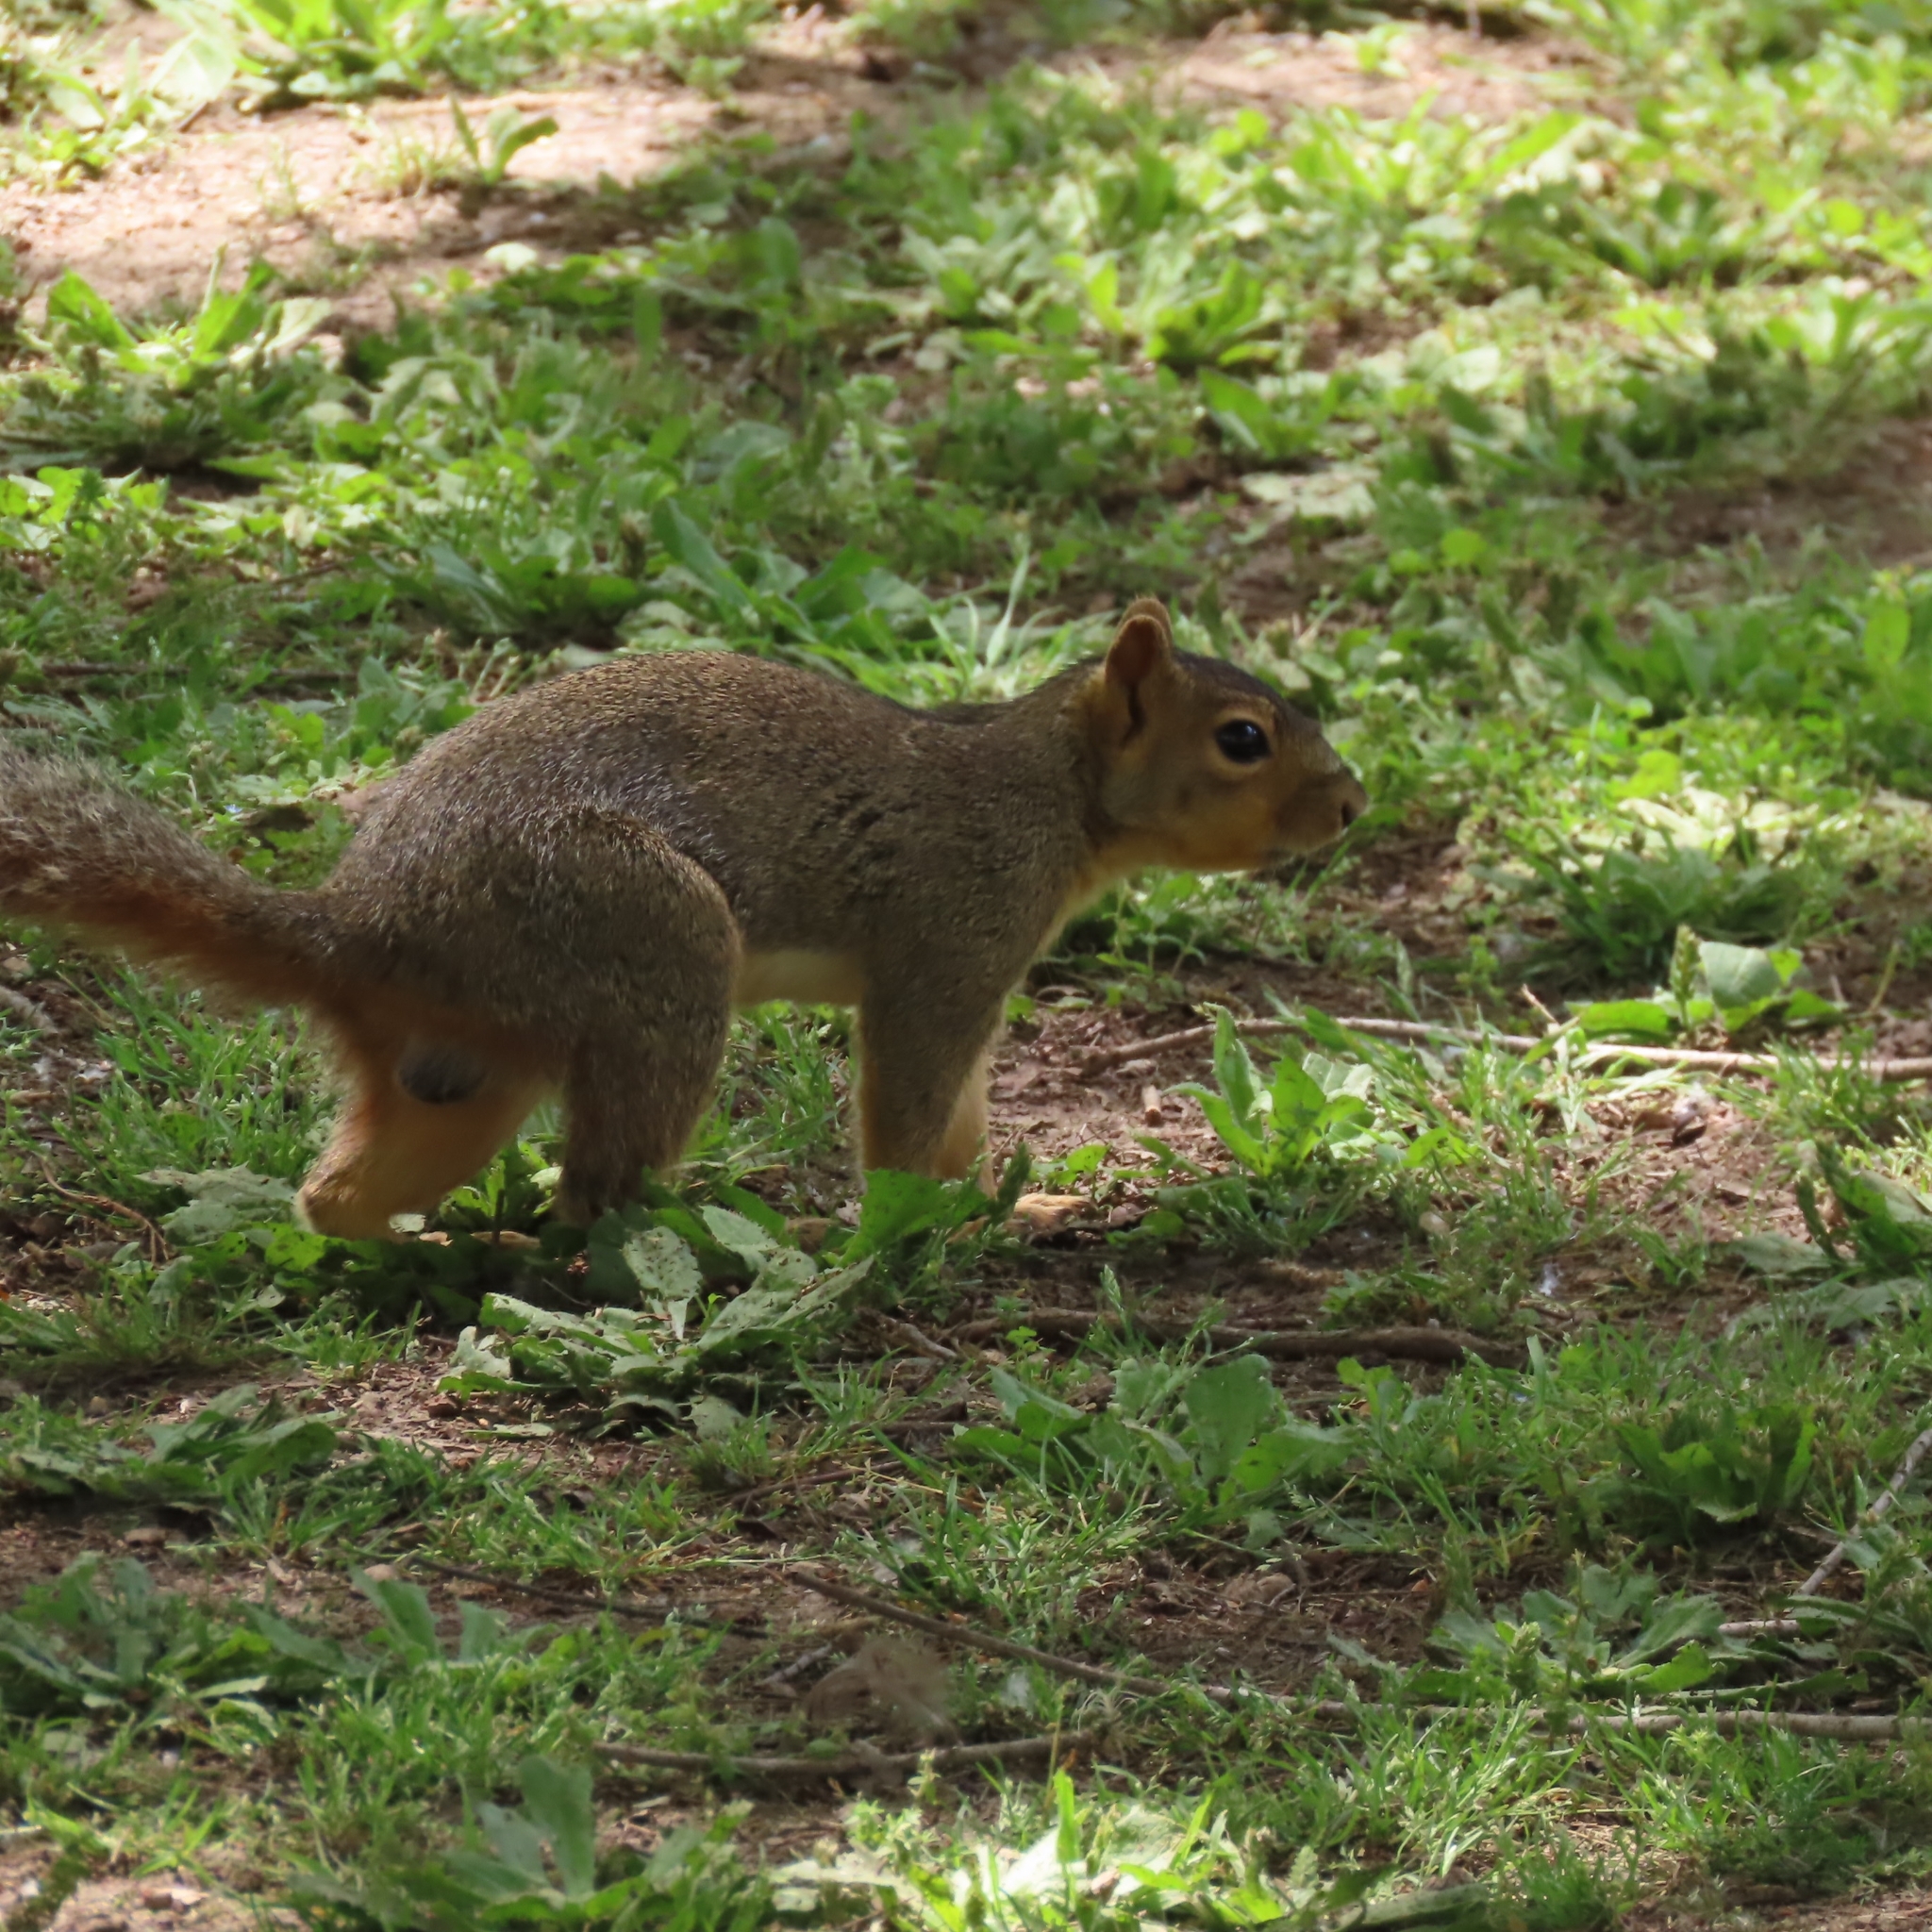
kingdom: Animalia
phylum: Chordata
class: Mammalia
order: Rodentia
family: Sciuridae
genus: Sciurus
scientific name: Sciurus niger
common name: Fox squirrel
